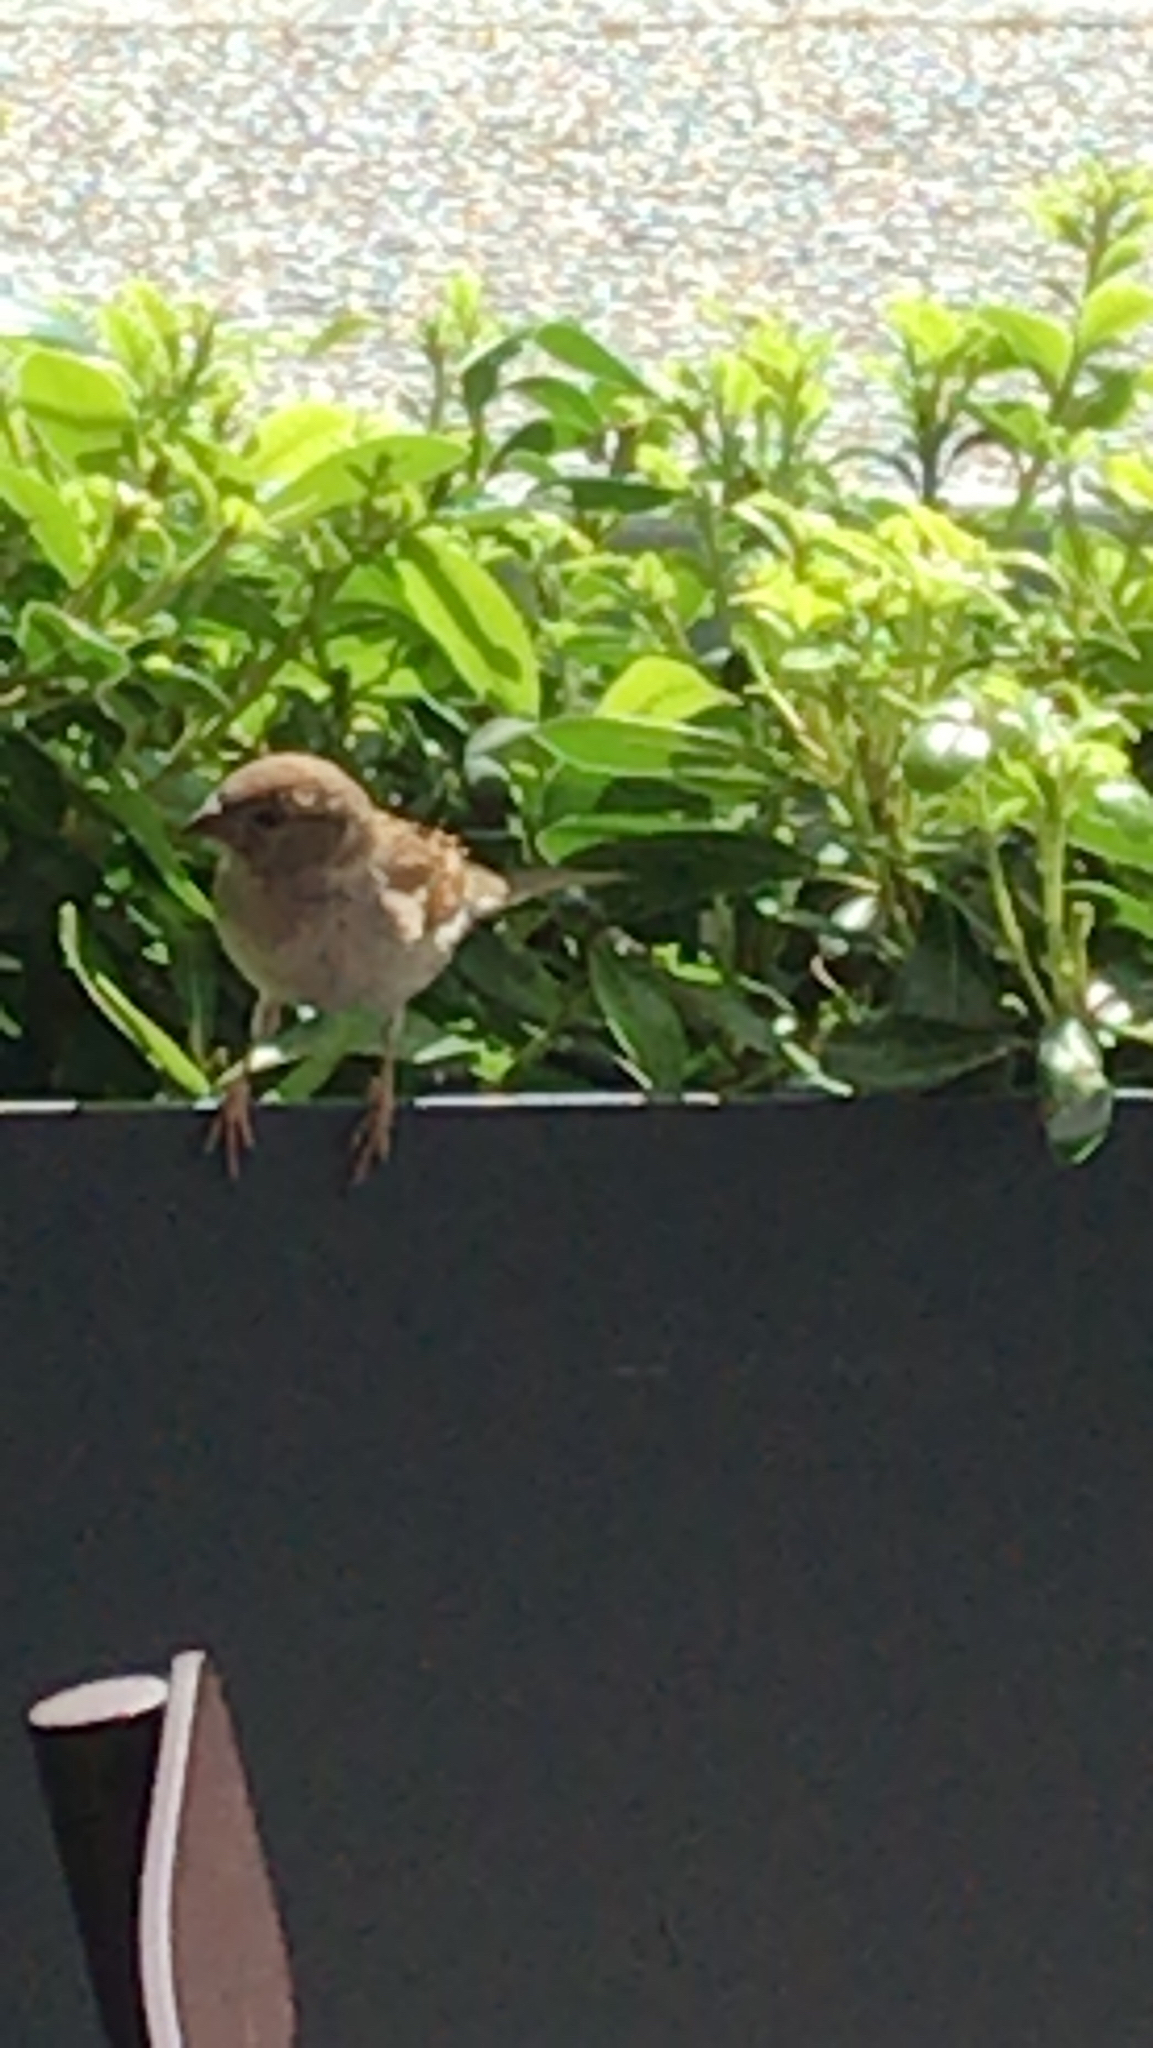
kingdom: Animalia
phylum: Chordata
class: Aves
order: Passeriformes
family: Passeridae
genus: Passer
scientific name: Passer domesticus
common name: House sparrow
